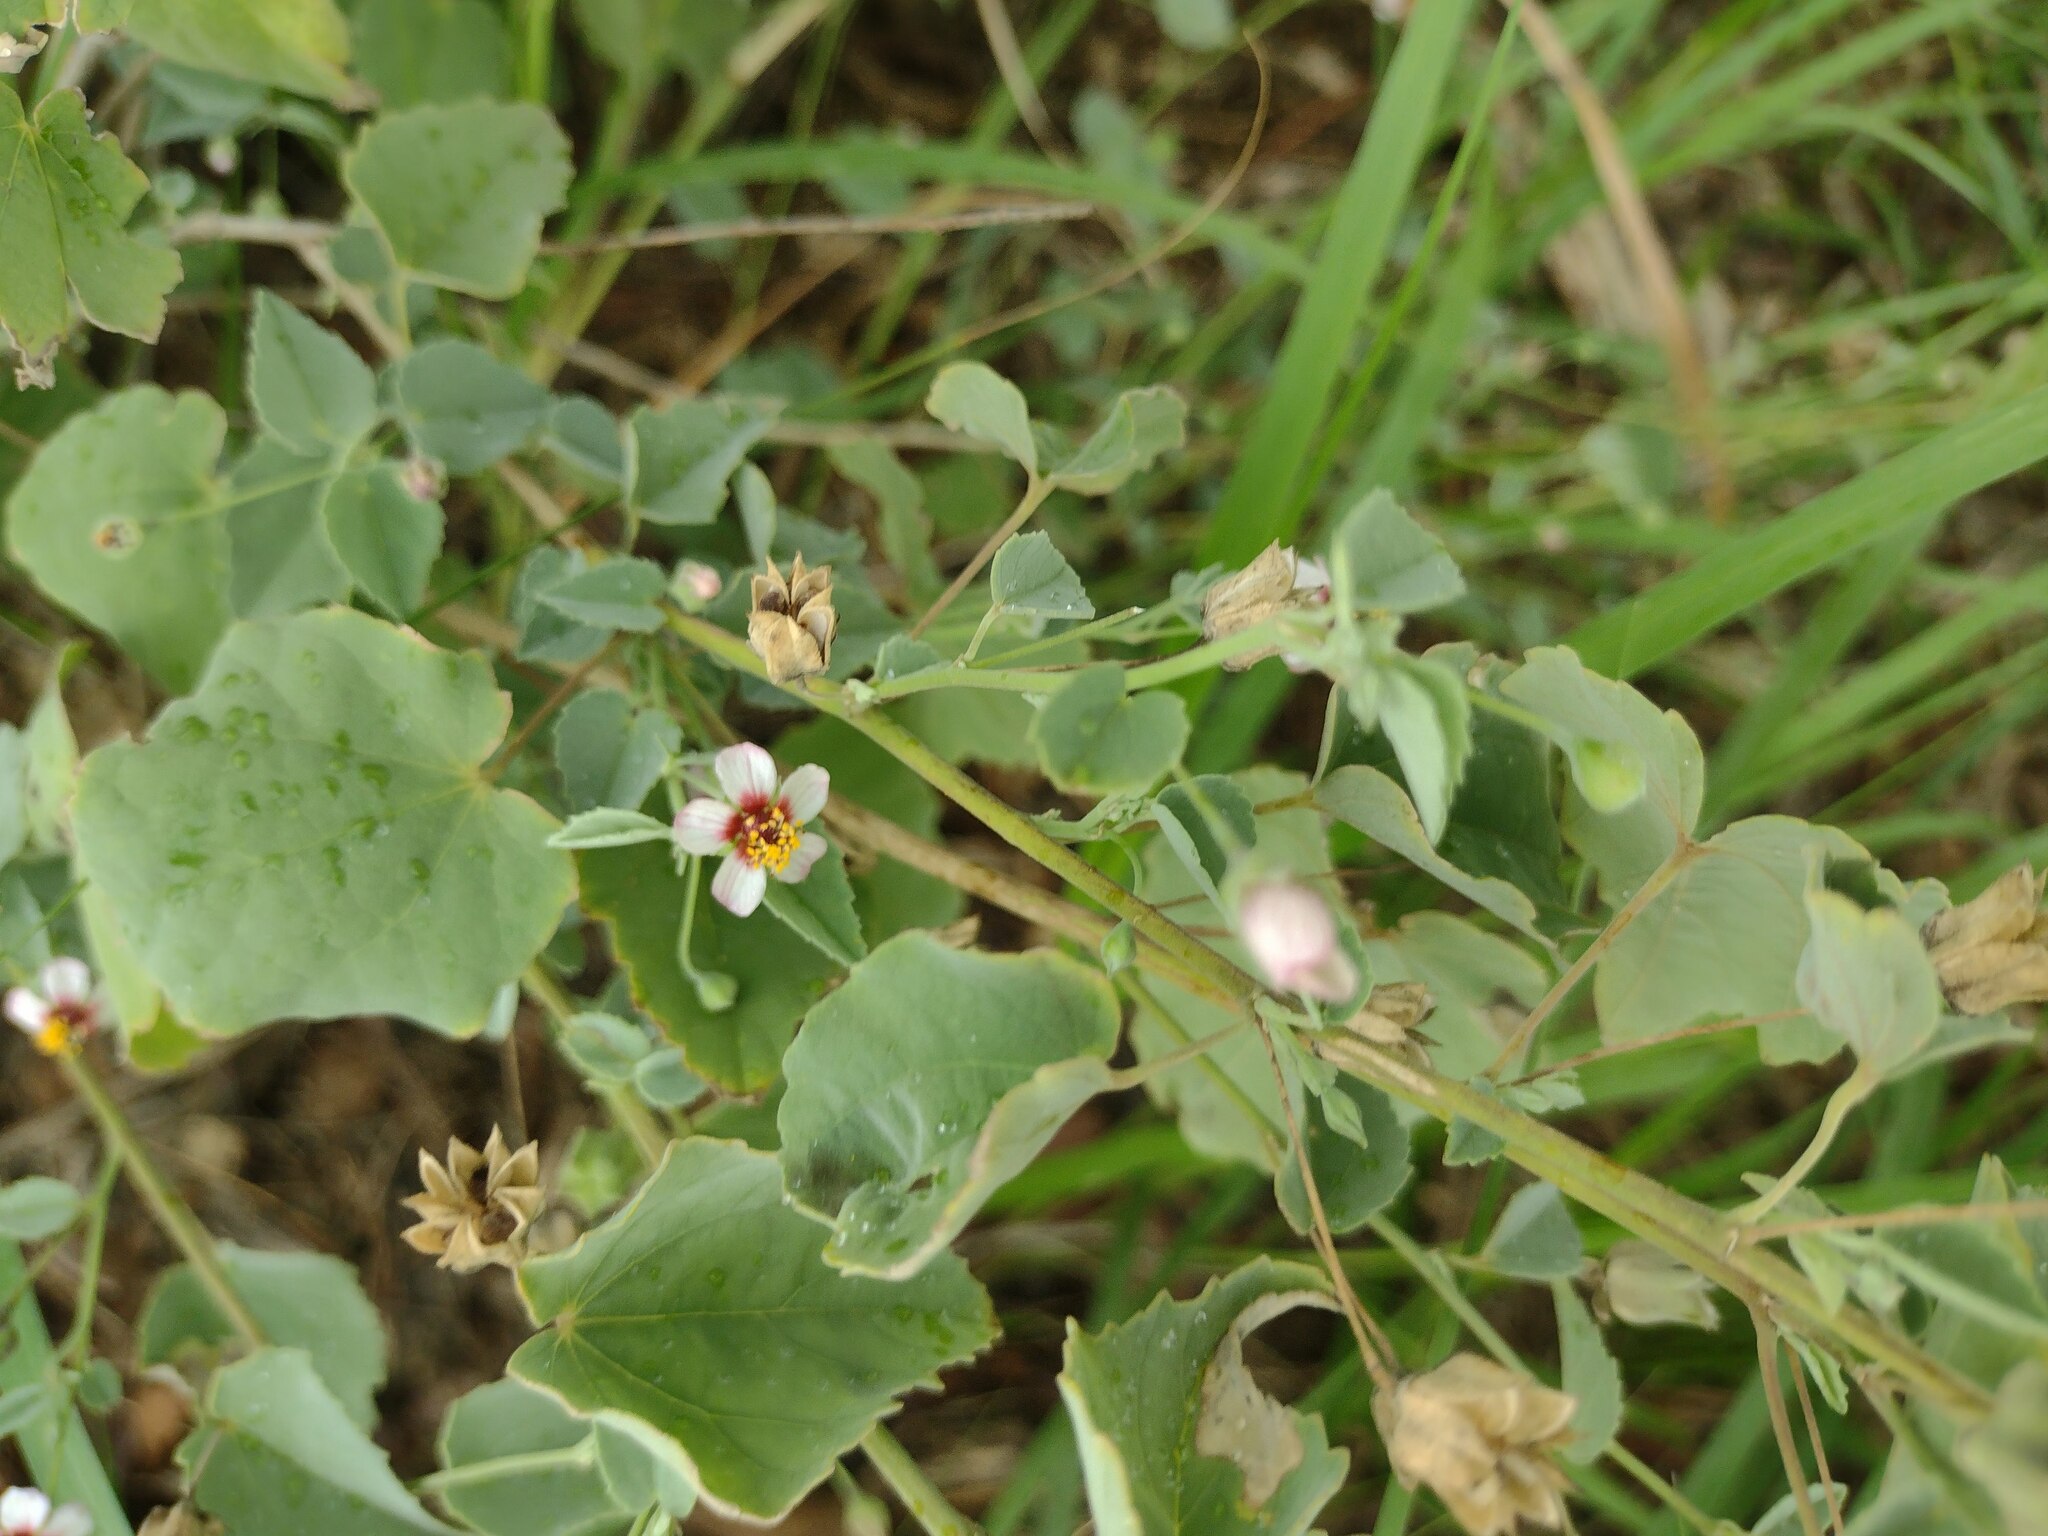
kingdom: Plantae
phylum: Tracheophyta
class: Magnoliopsida
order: Malvales
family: Malvaceae
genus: Abutilon
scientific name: Abutilon incanum
